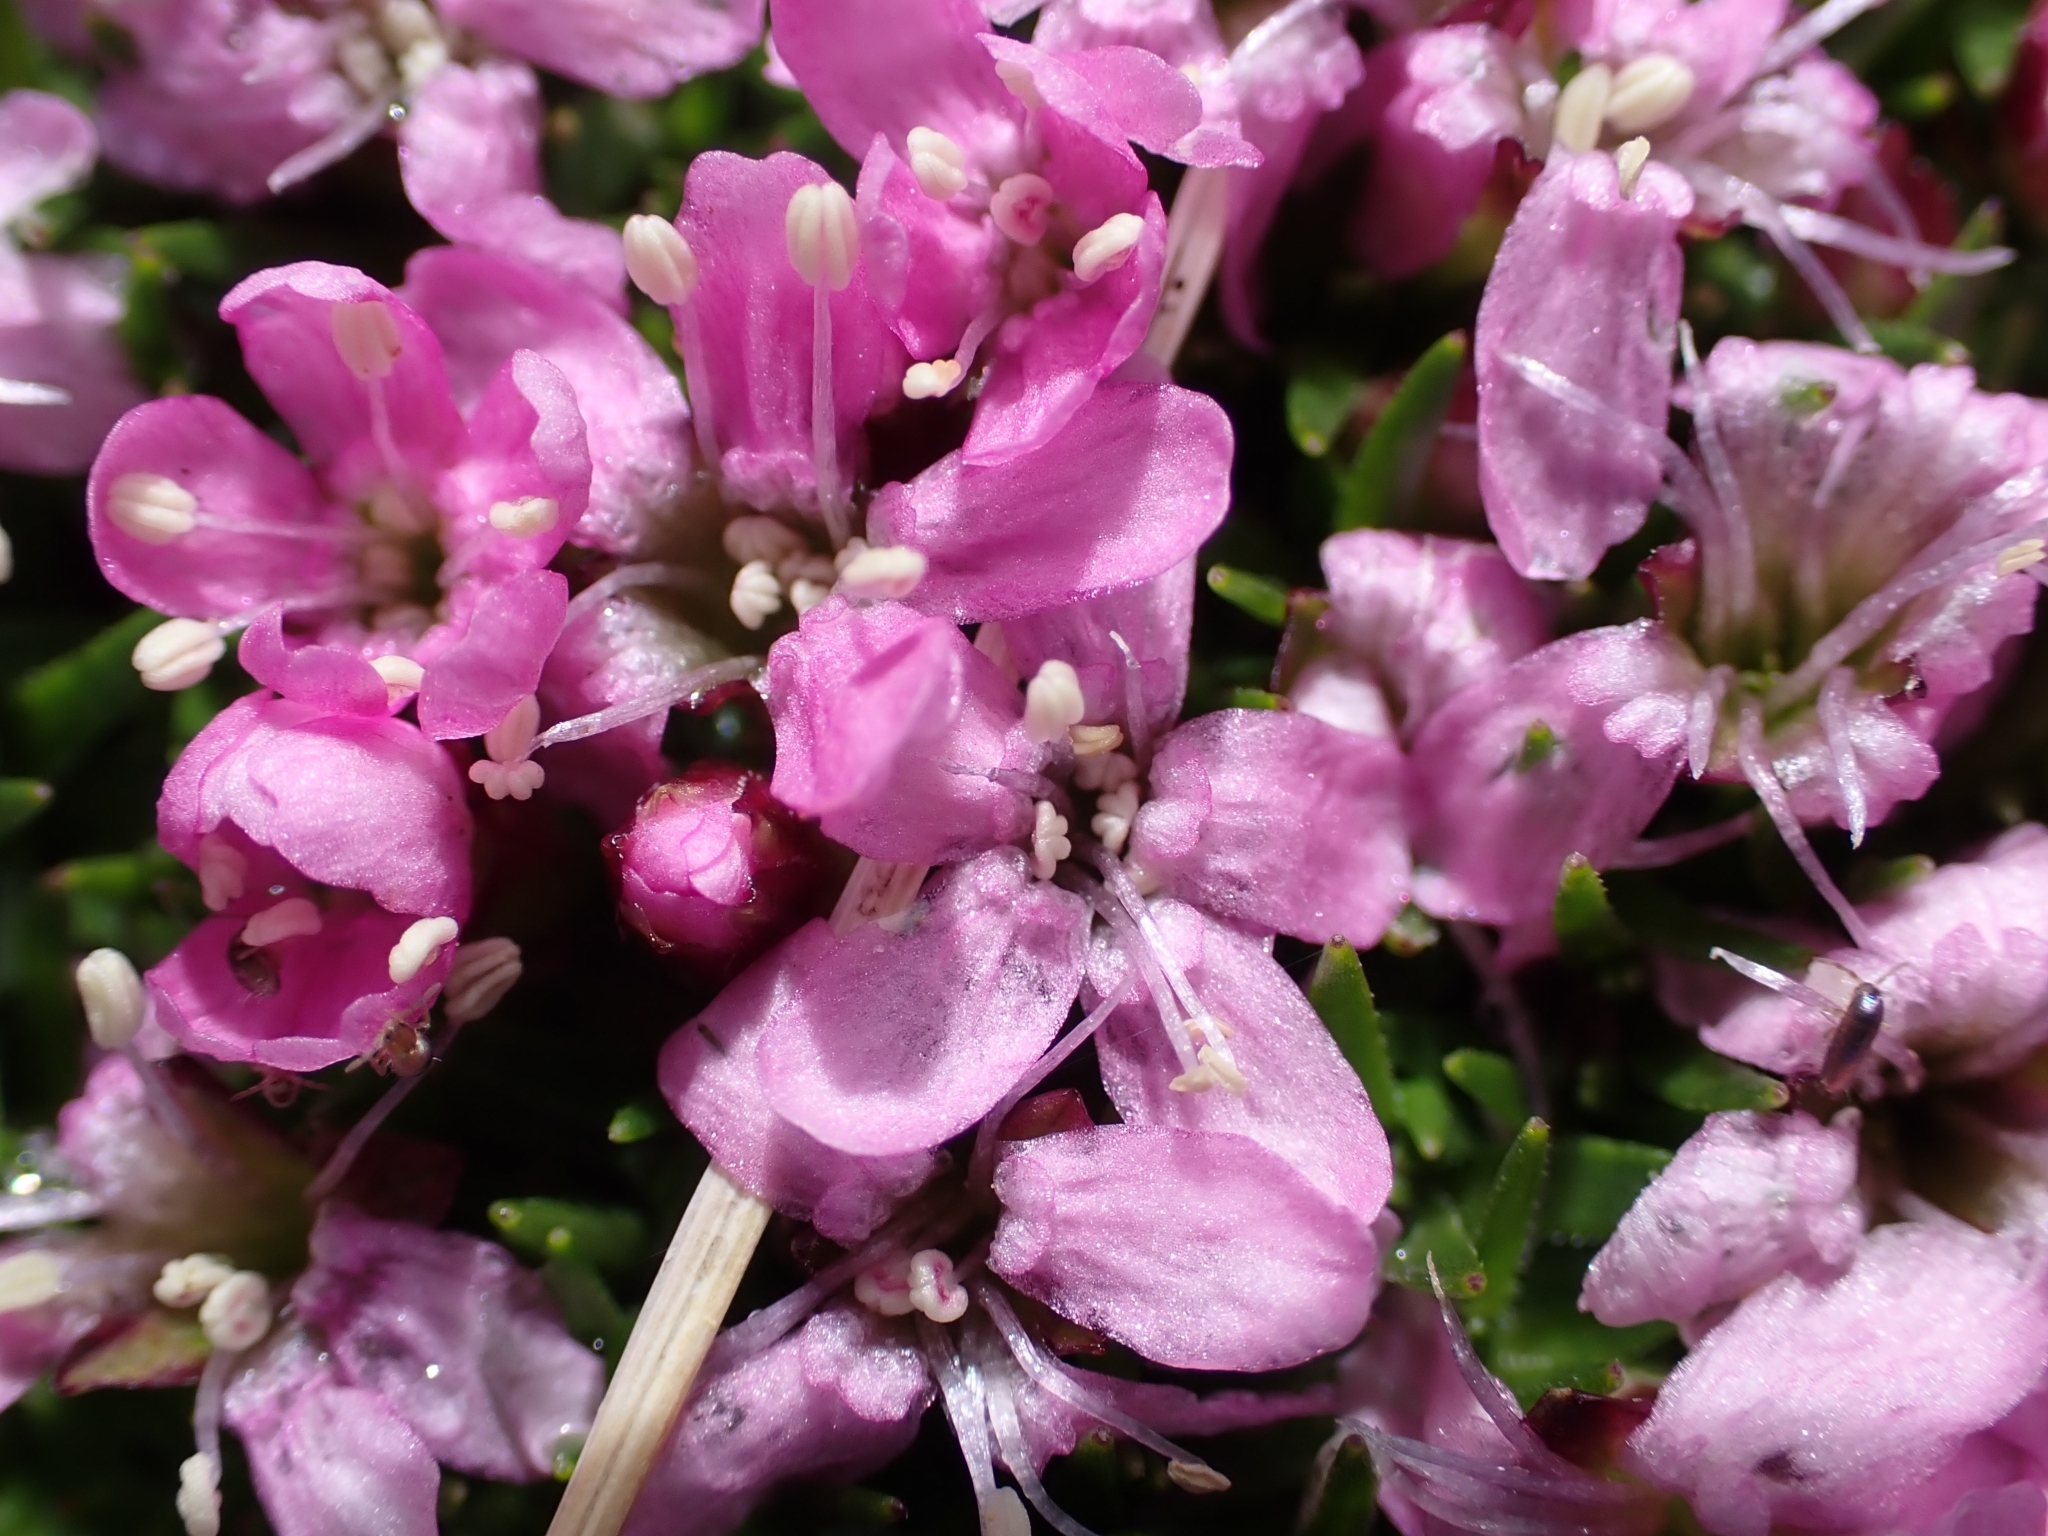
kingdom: Plantae
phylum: Tracheophyta
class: Magnoliopsida
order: Caryophyllales
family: Caryophyllaceae
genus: Silene
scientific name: Silene acaulis
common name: Moss campion
